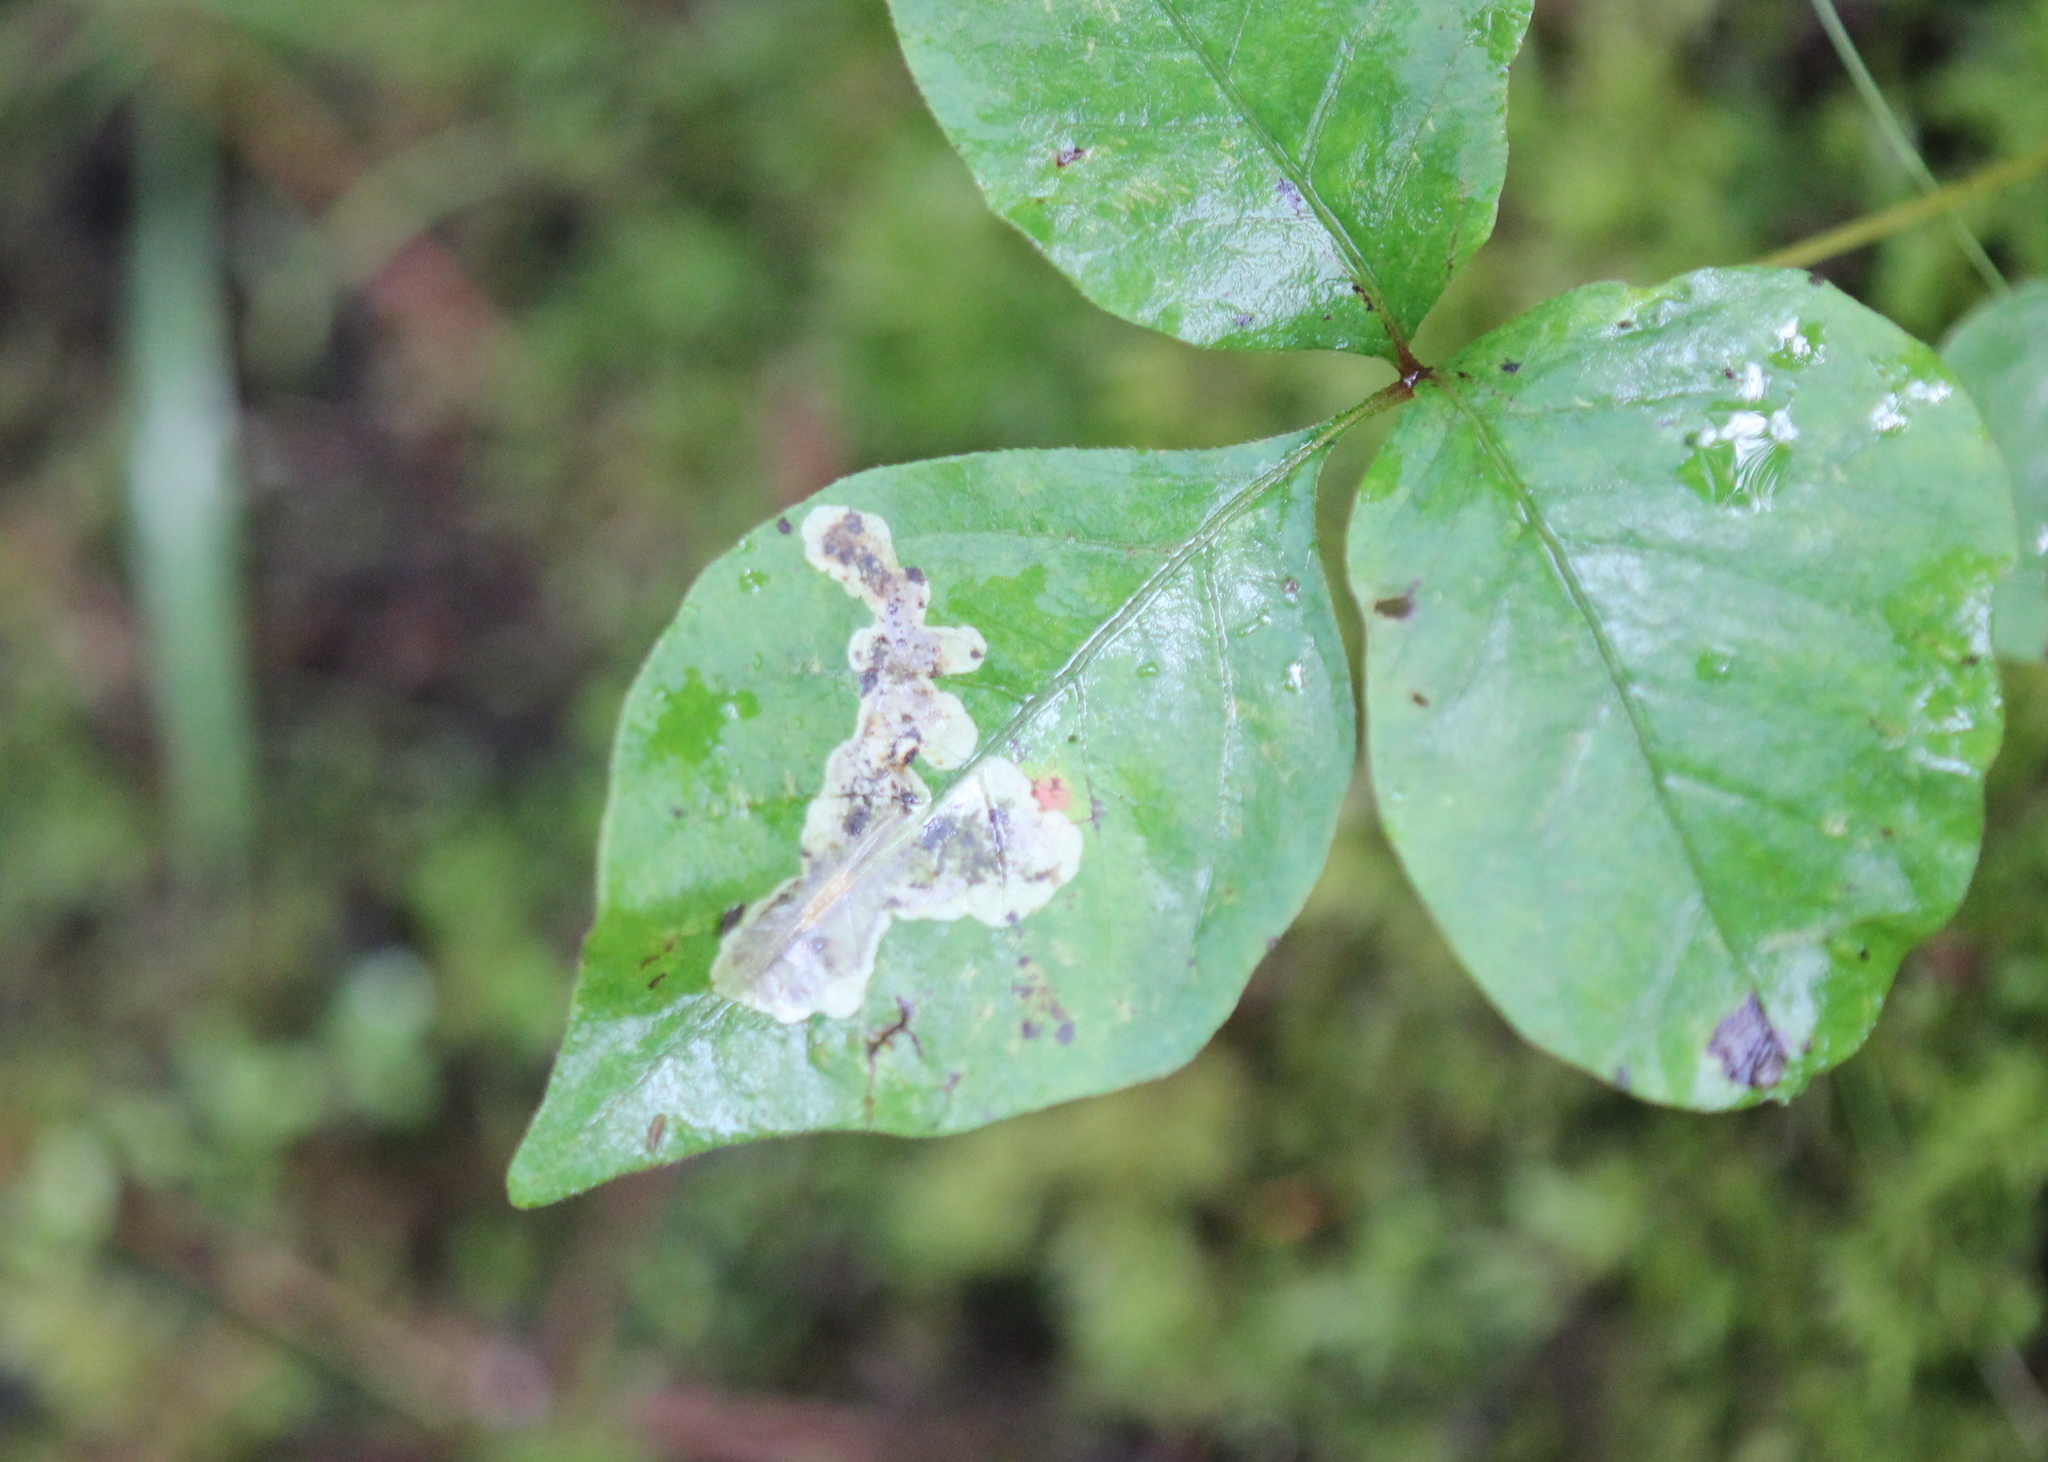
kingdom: Animalia
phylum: Arthropoda
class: Insecta
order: Lepidoptera
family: Gracillariidae
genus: Cameraria
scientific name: Cameraria guttifinitella
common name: Poison ivy leaf-miner moth
